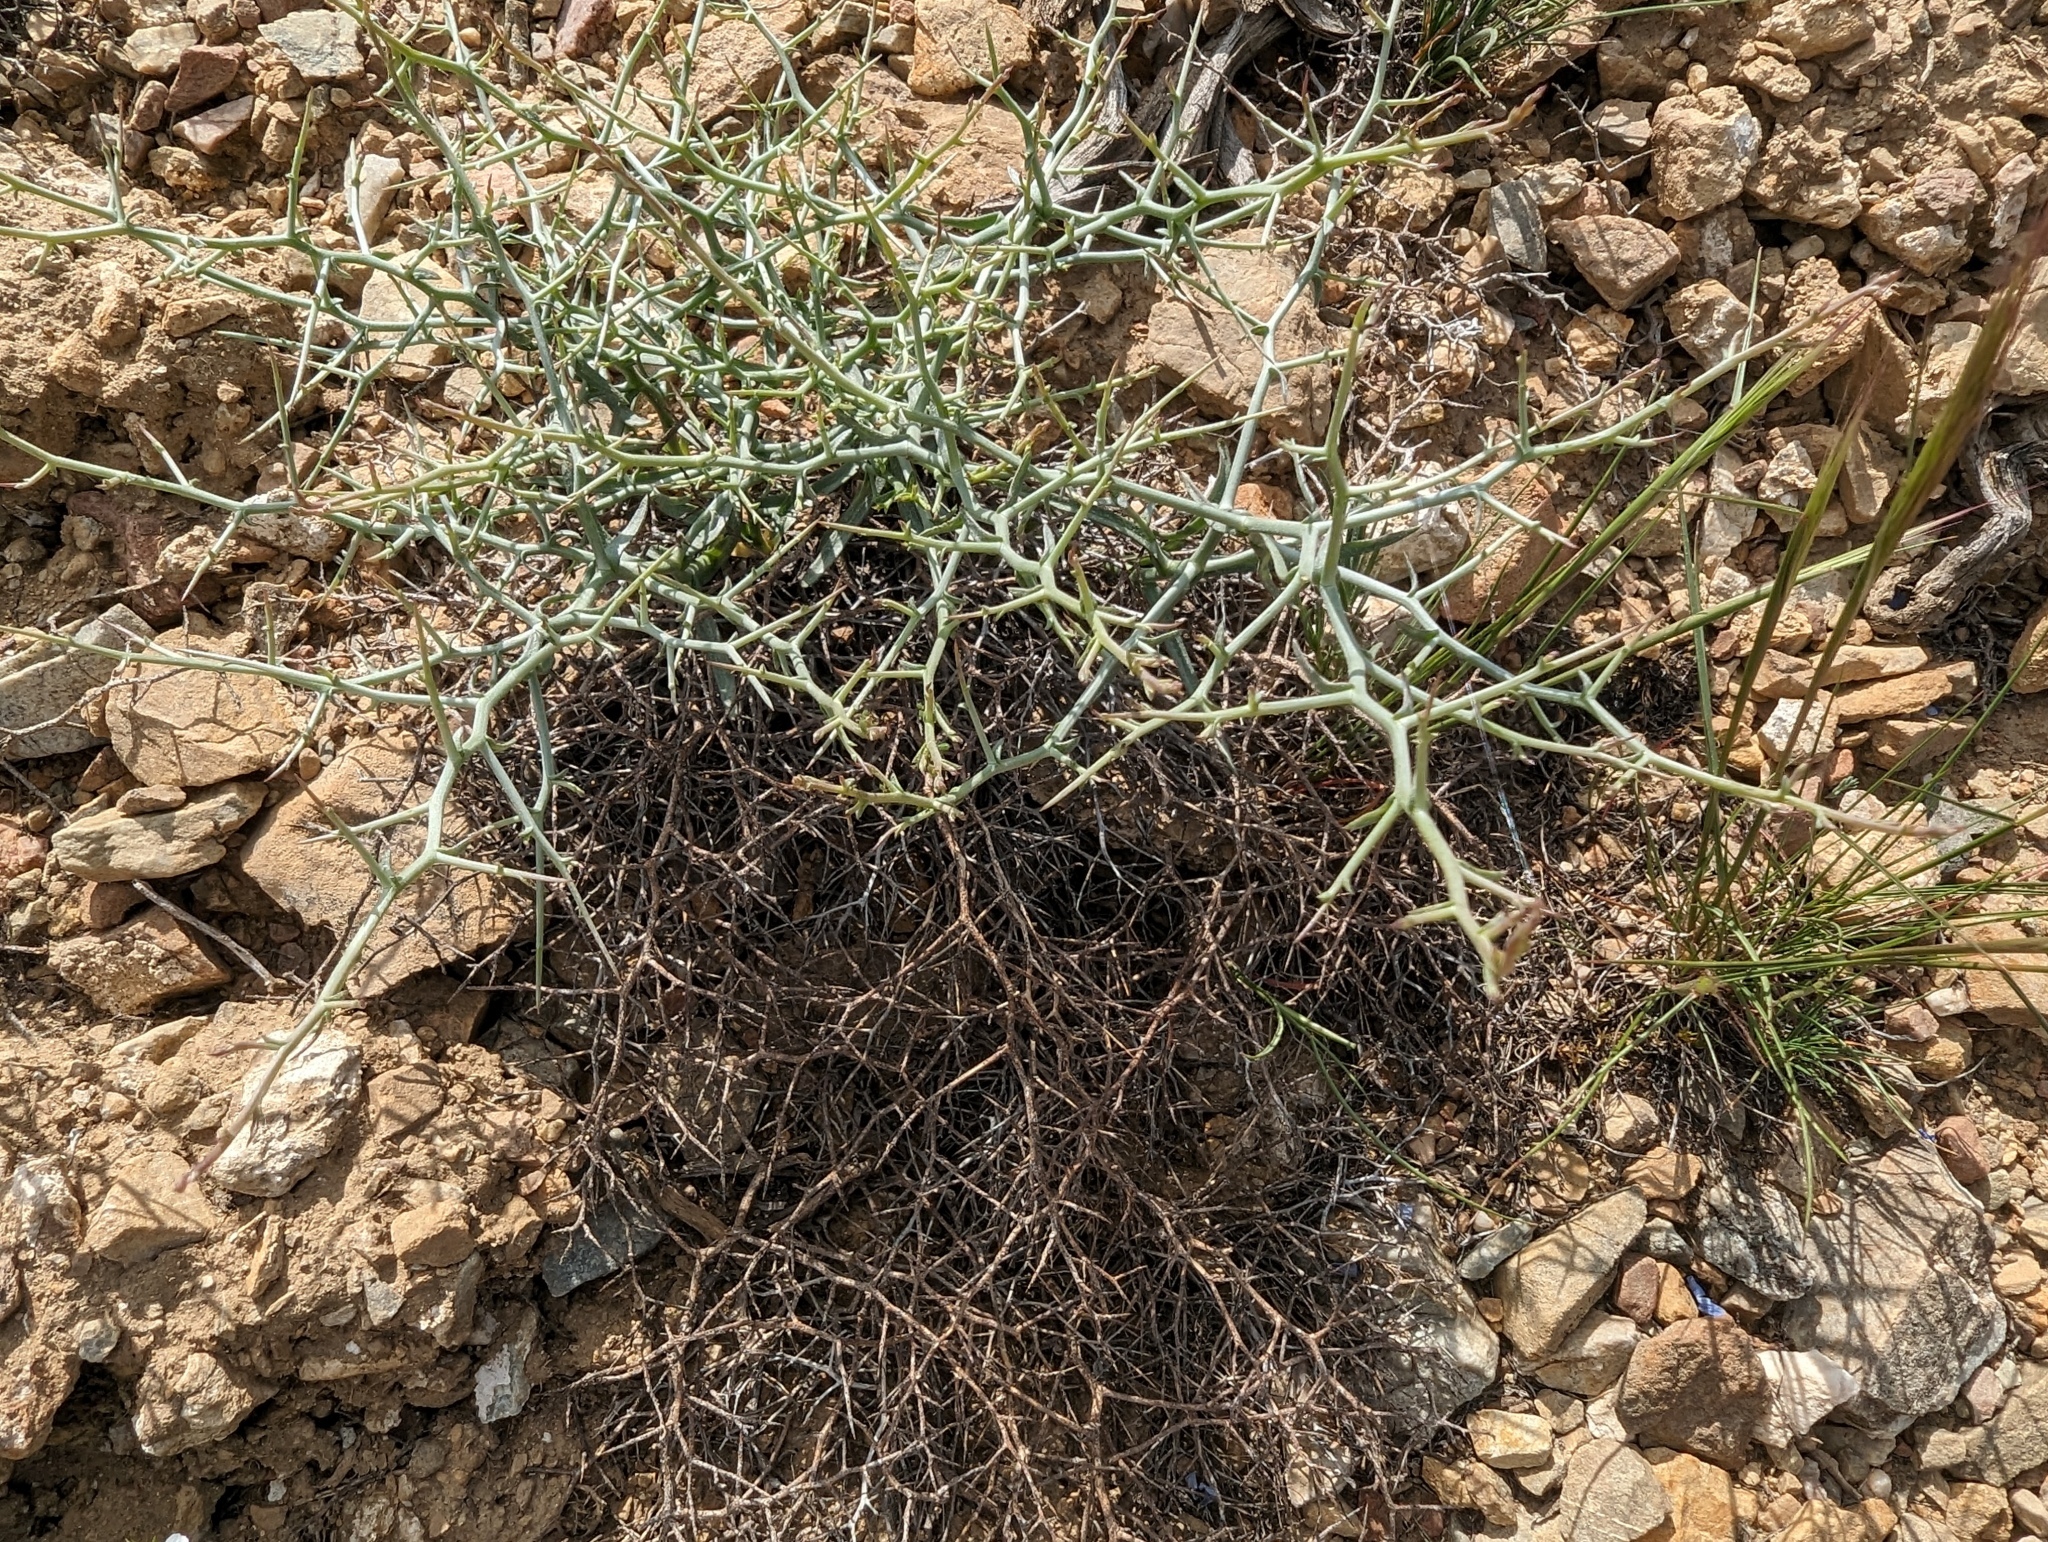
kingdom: Plantae
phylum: Tracheophyta
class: Magnoliopsida
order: Asterales
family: Asteraceae
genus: Pleiacanthus
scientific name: Pleiacanthus spinosus
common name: Thorny skeleton-weed
